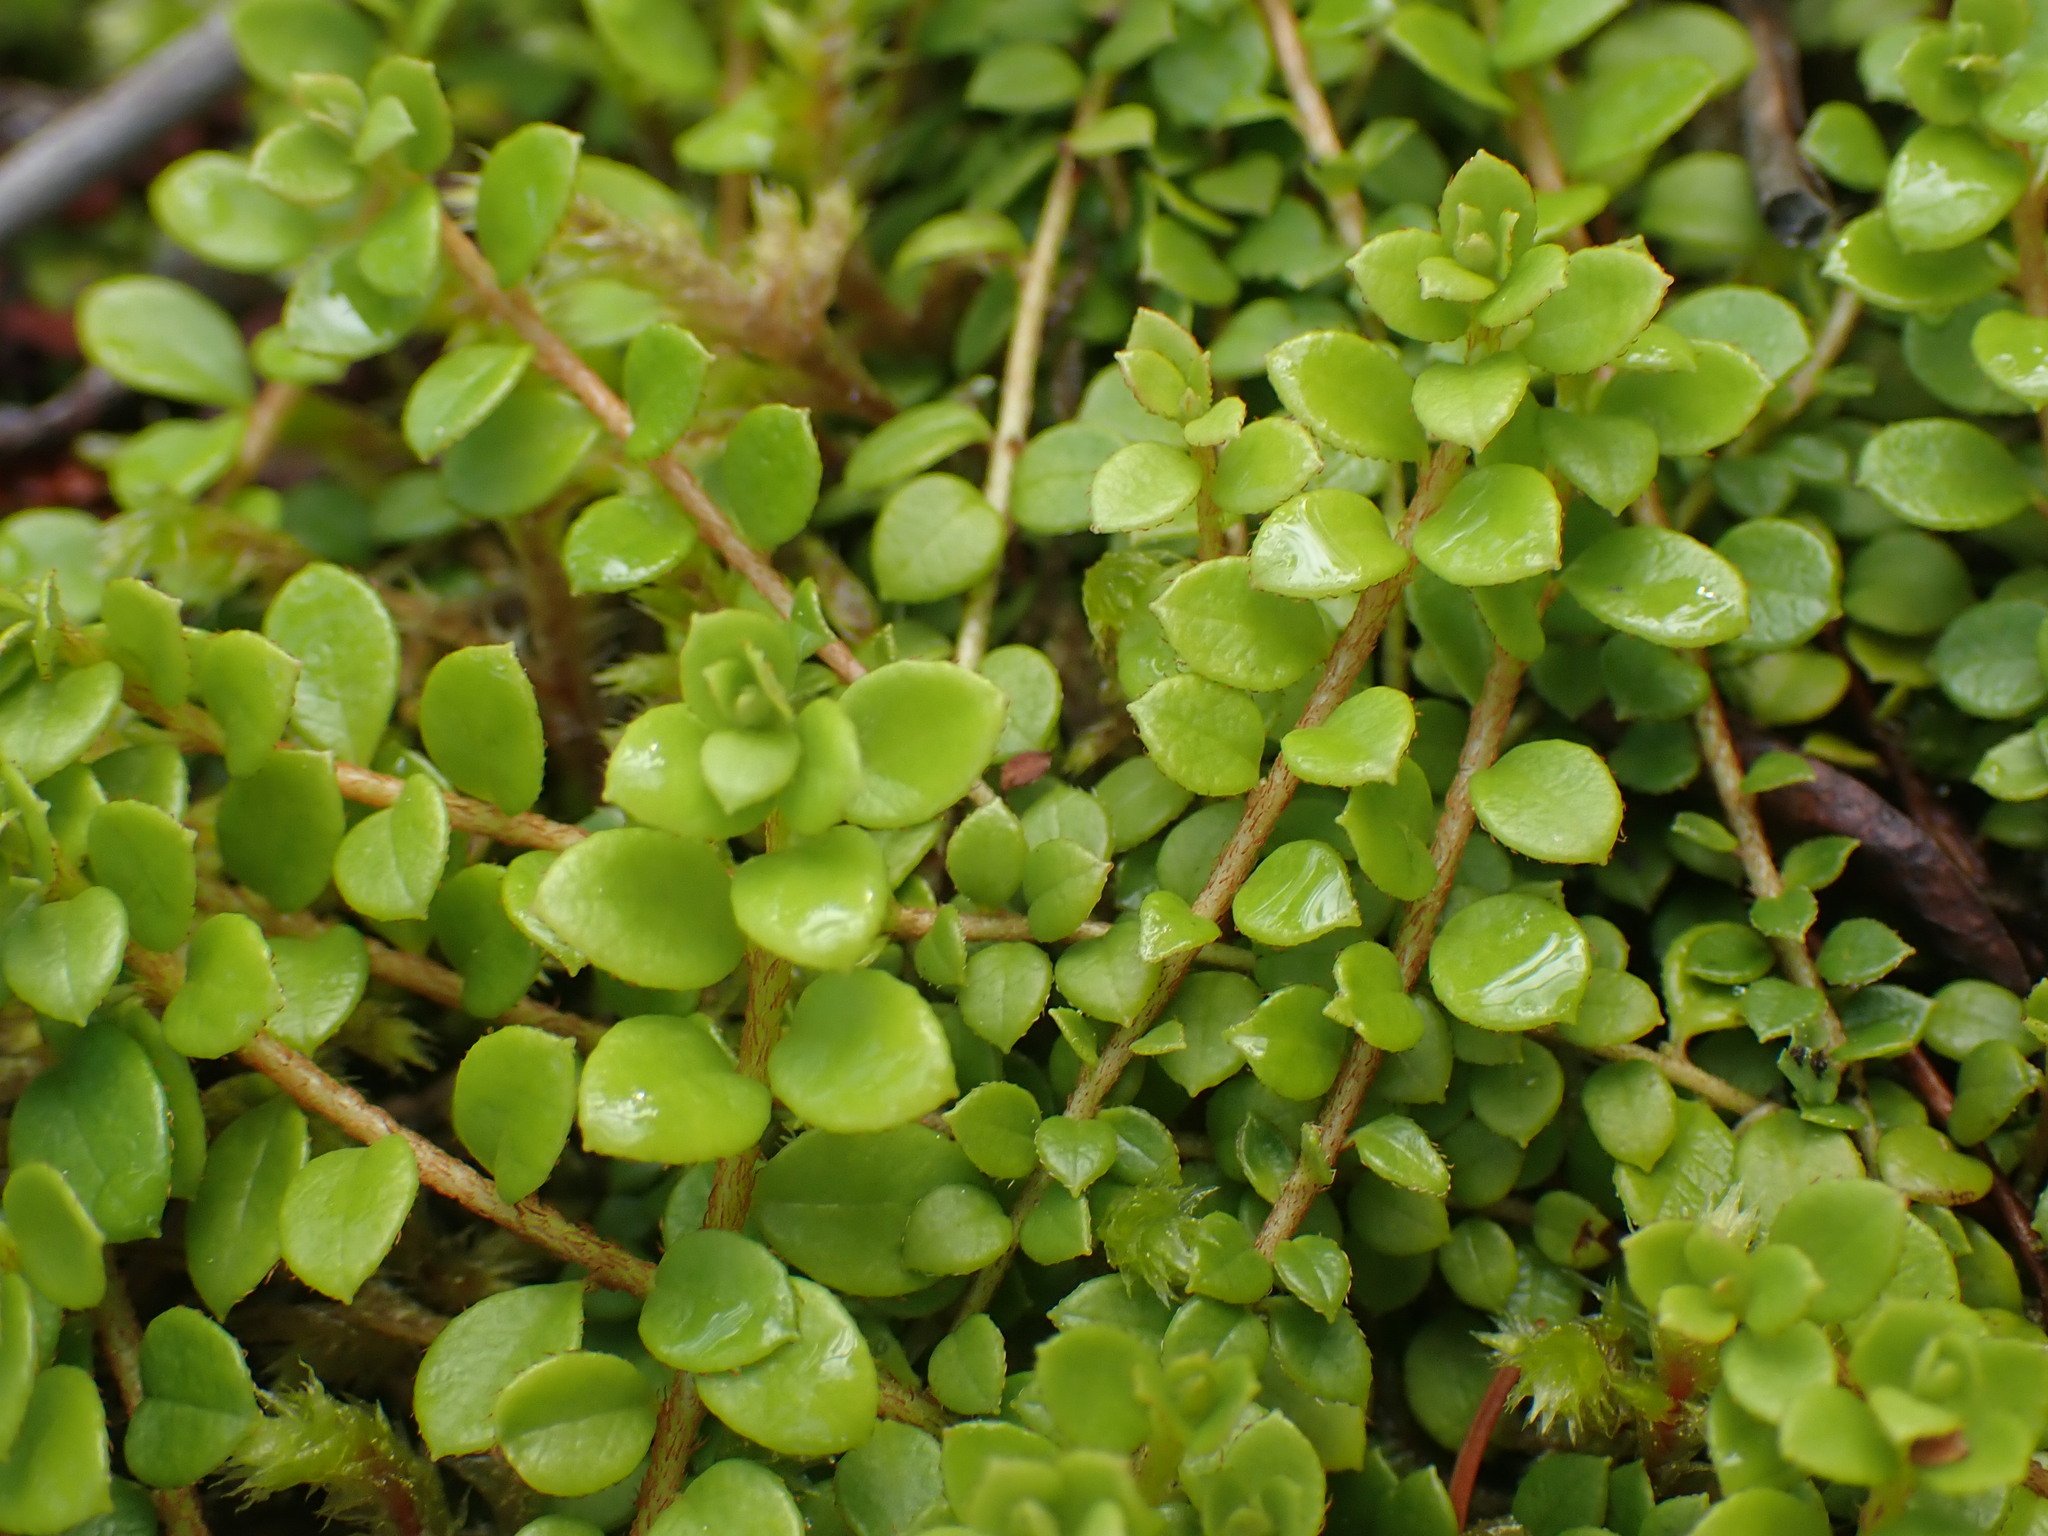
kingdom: Plantae
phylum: Tracheophyta
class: Magnoliopsida
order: Ericales
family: Ericaceae
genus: Gaultheria
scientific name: Gaultheria hispidula
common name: Cancer wintergreen
